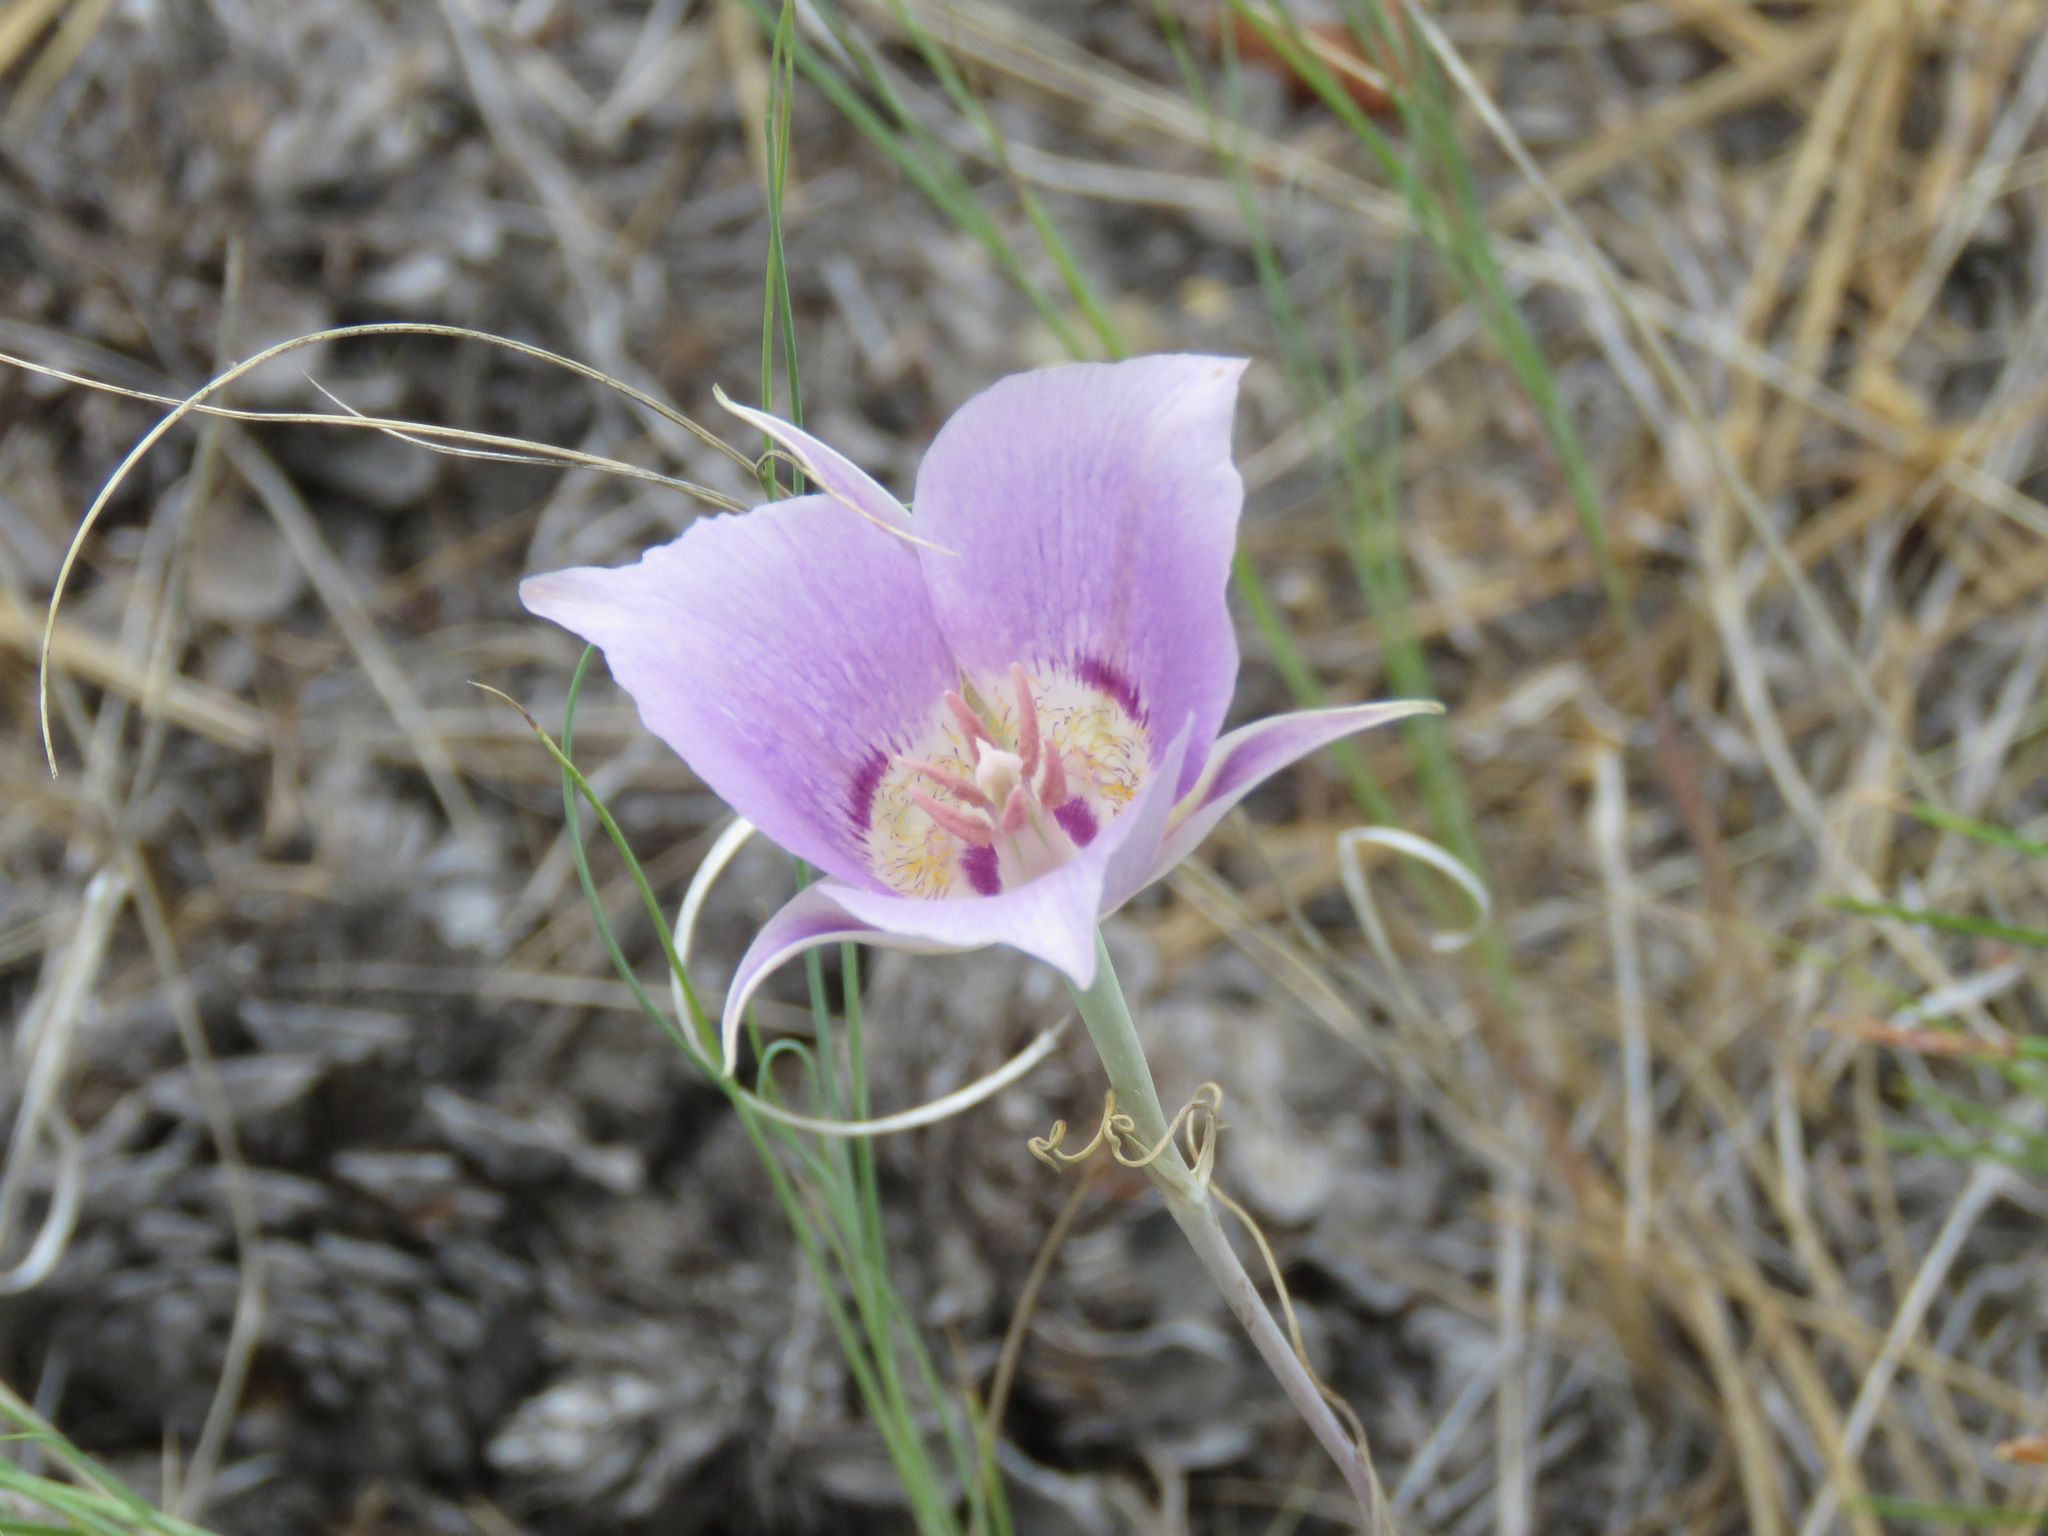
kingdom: Plantae
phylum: Tracheophyta
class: Liliopsida
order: Liliales
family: Liliaceae
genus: Calochortus
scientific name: Calochortus macrocarpus
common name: Green-band mariposa lily
